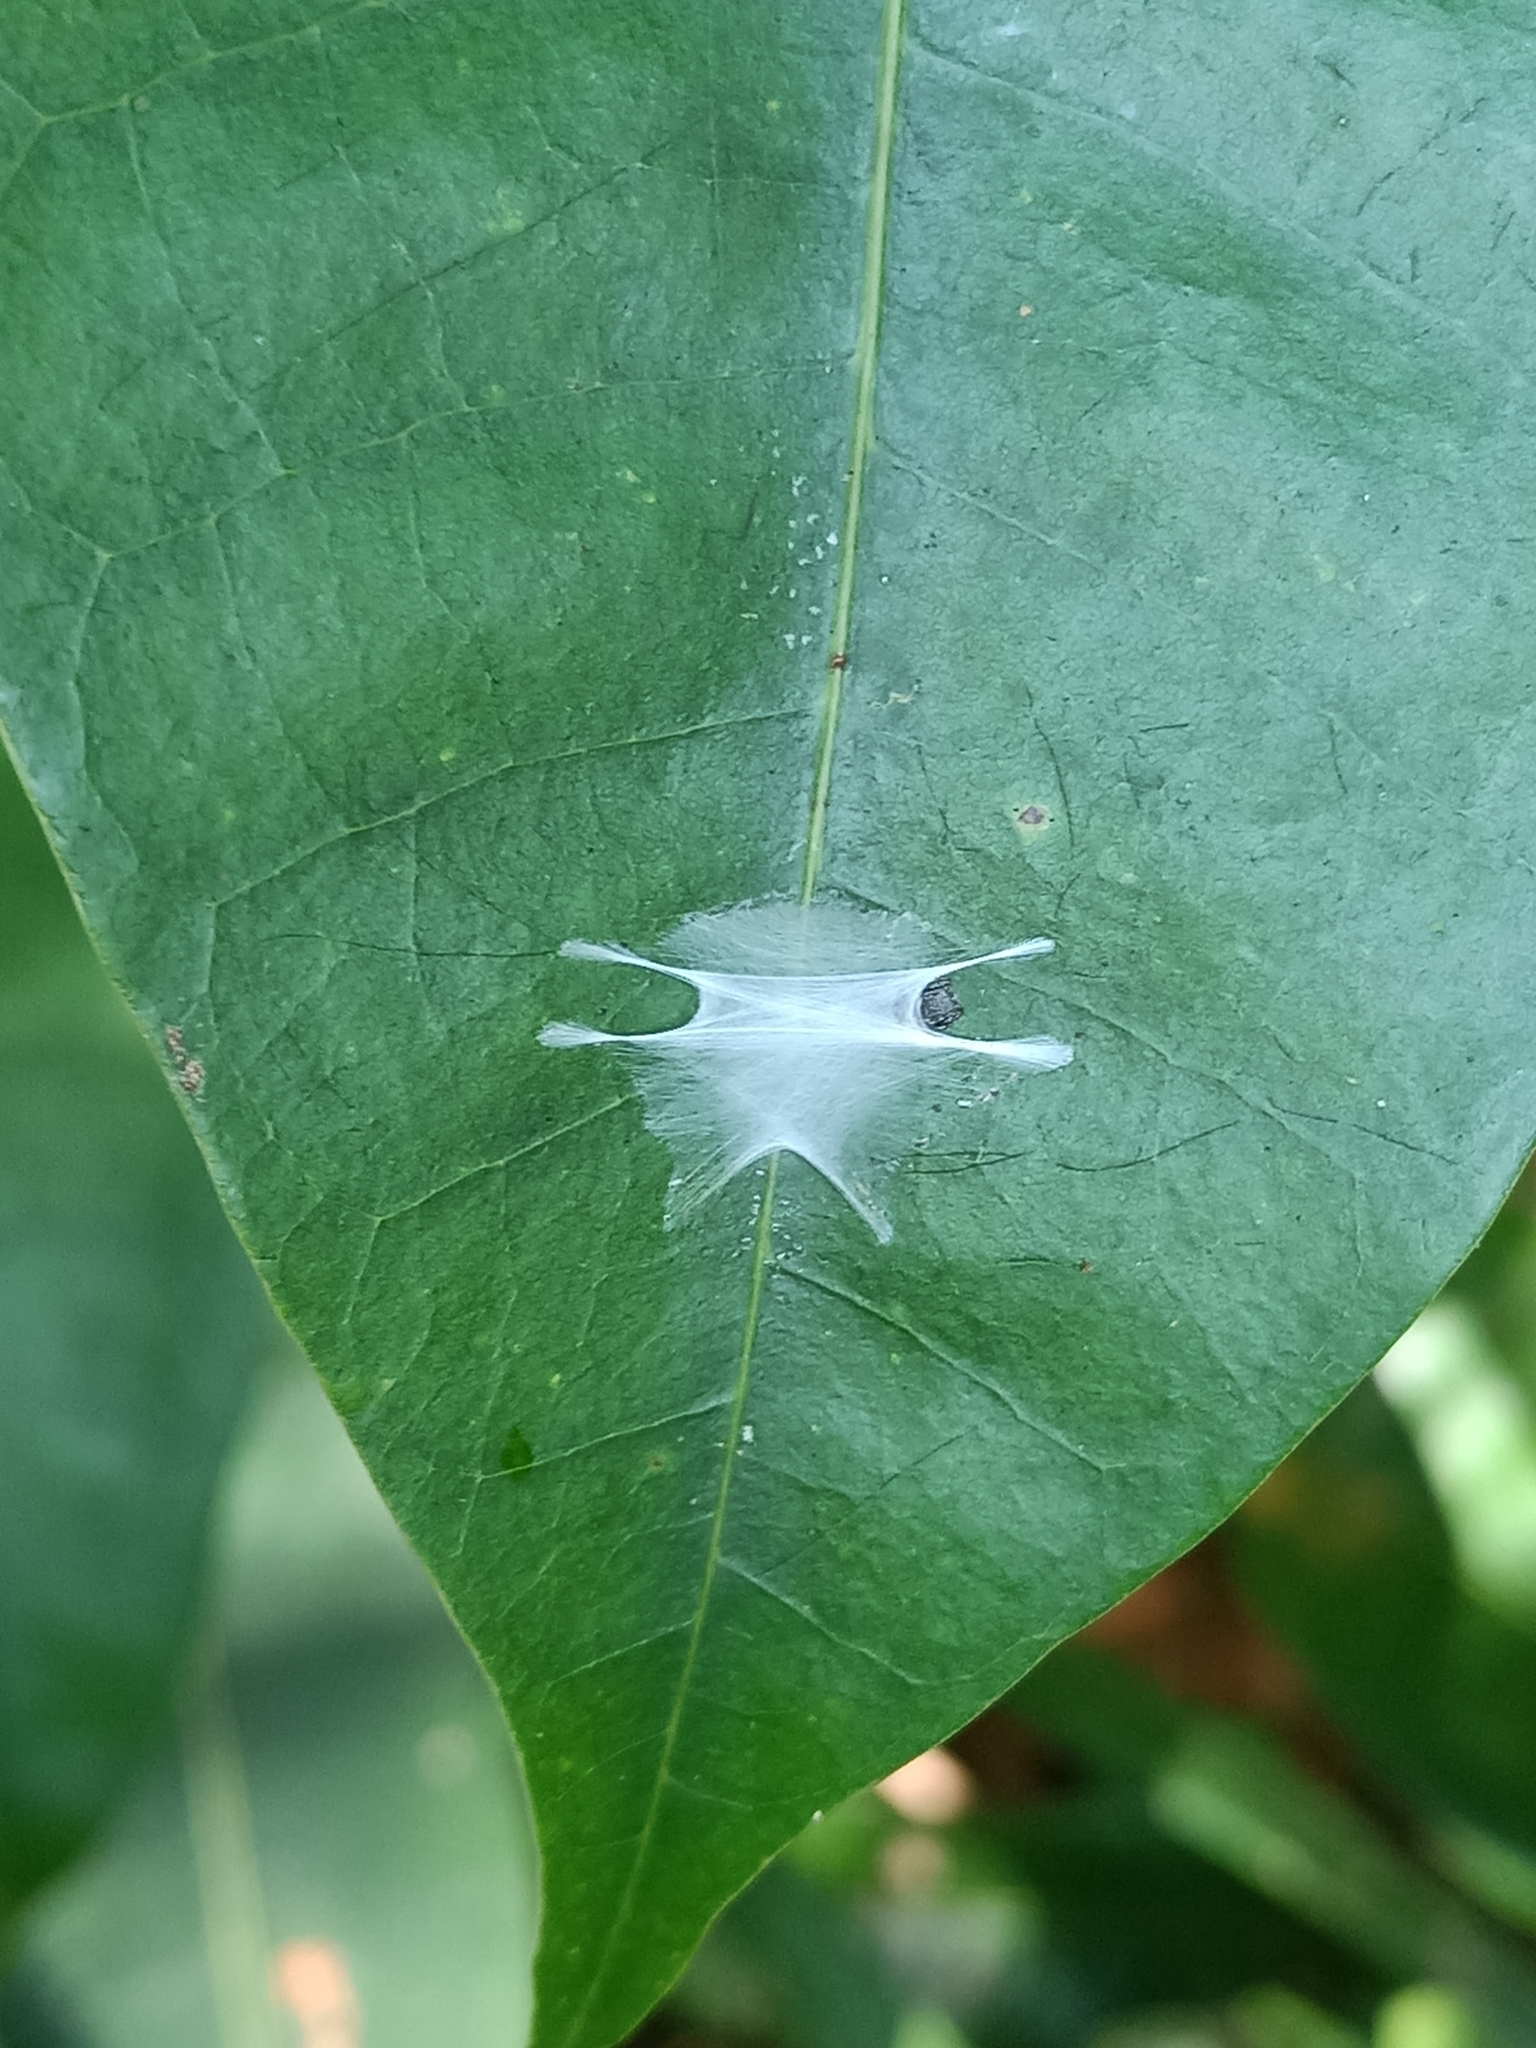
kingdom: Animalia
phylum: Arthropoda
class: Arachnida
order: Araneae
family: Salticidae
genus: Fritzia
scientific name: Fritzia muelleri
